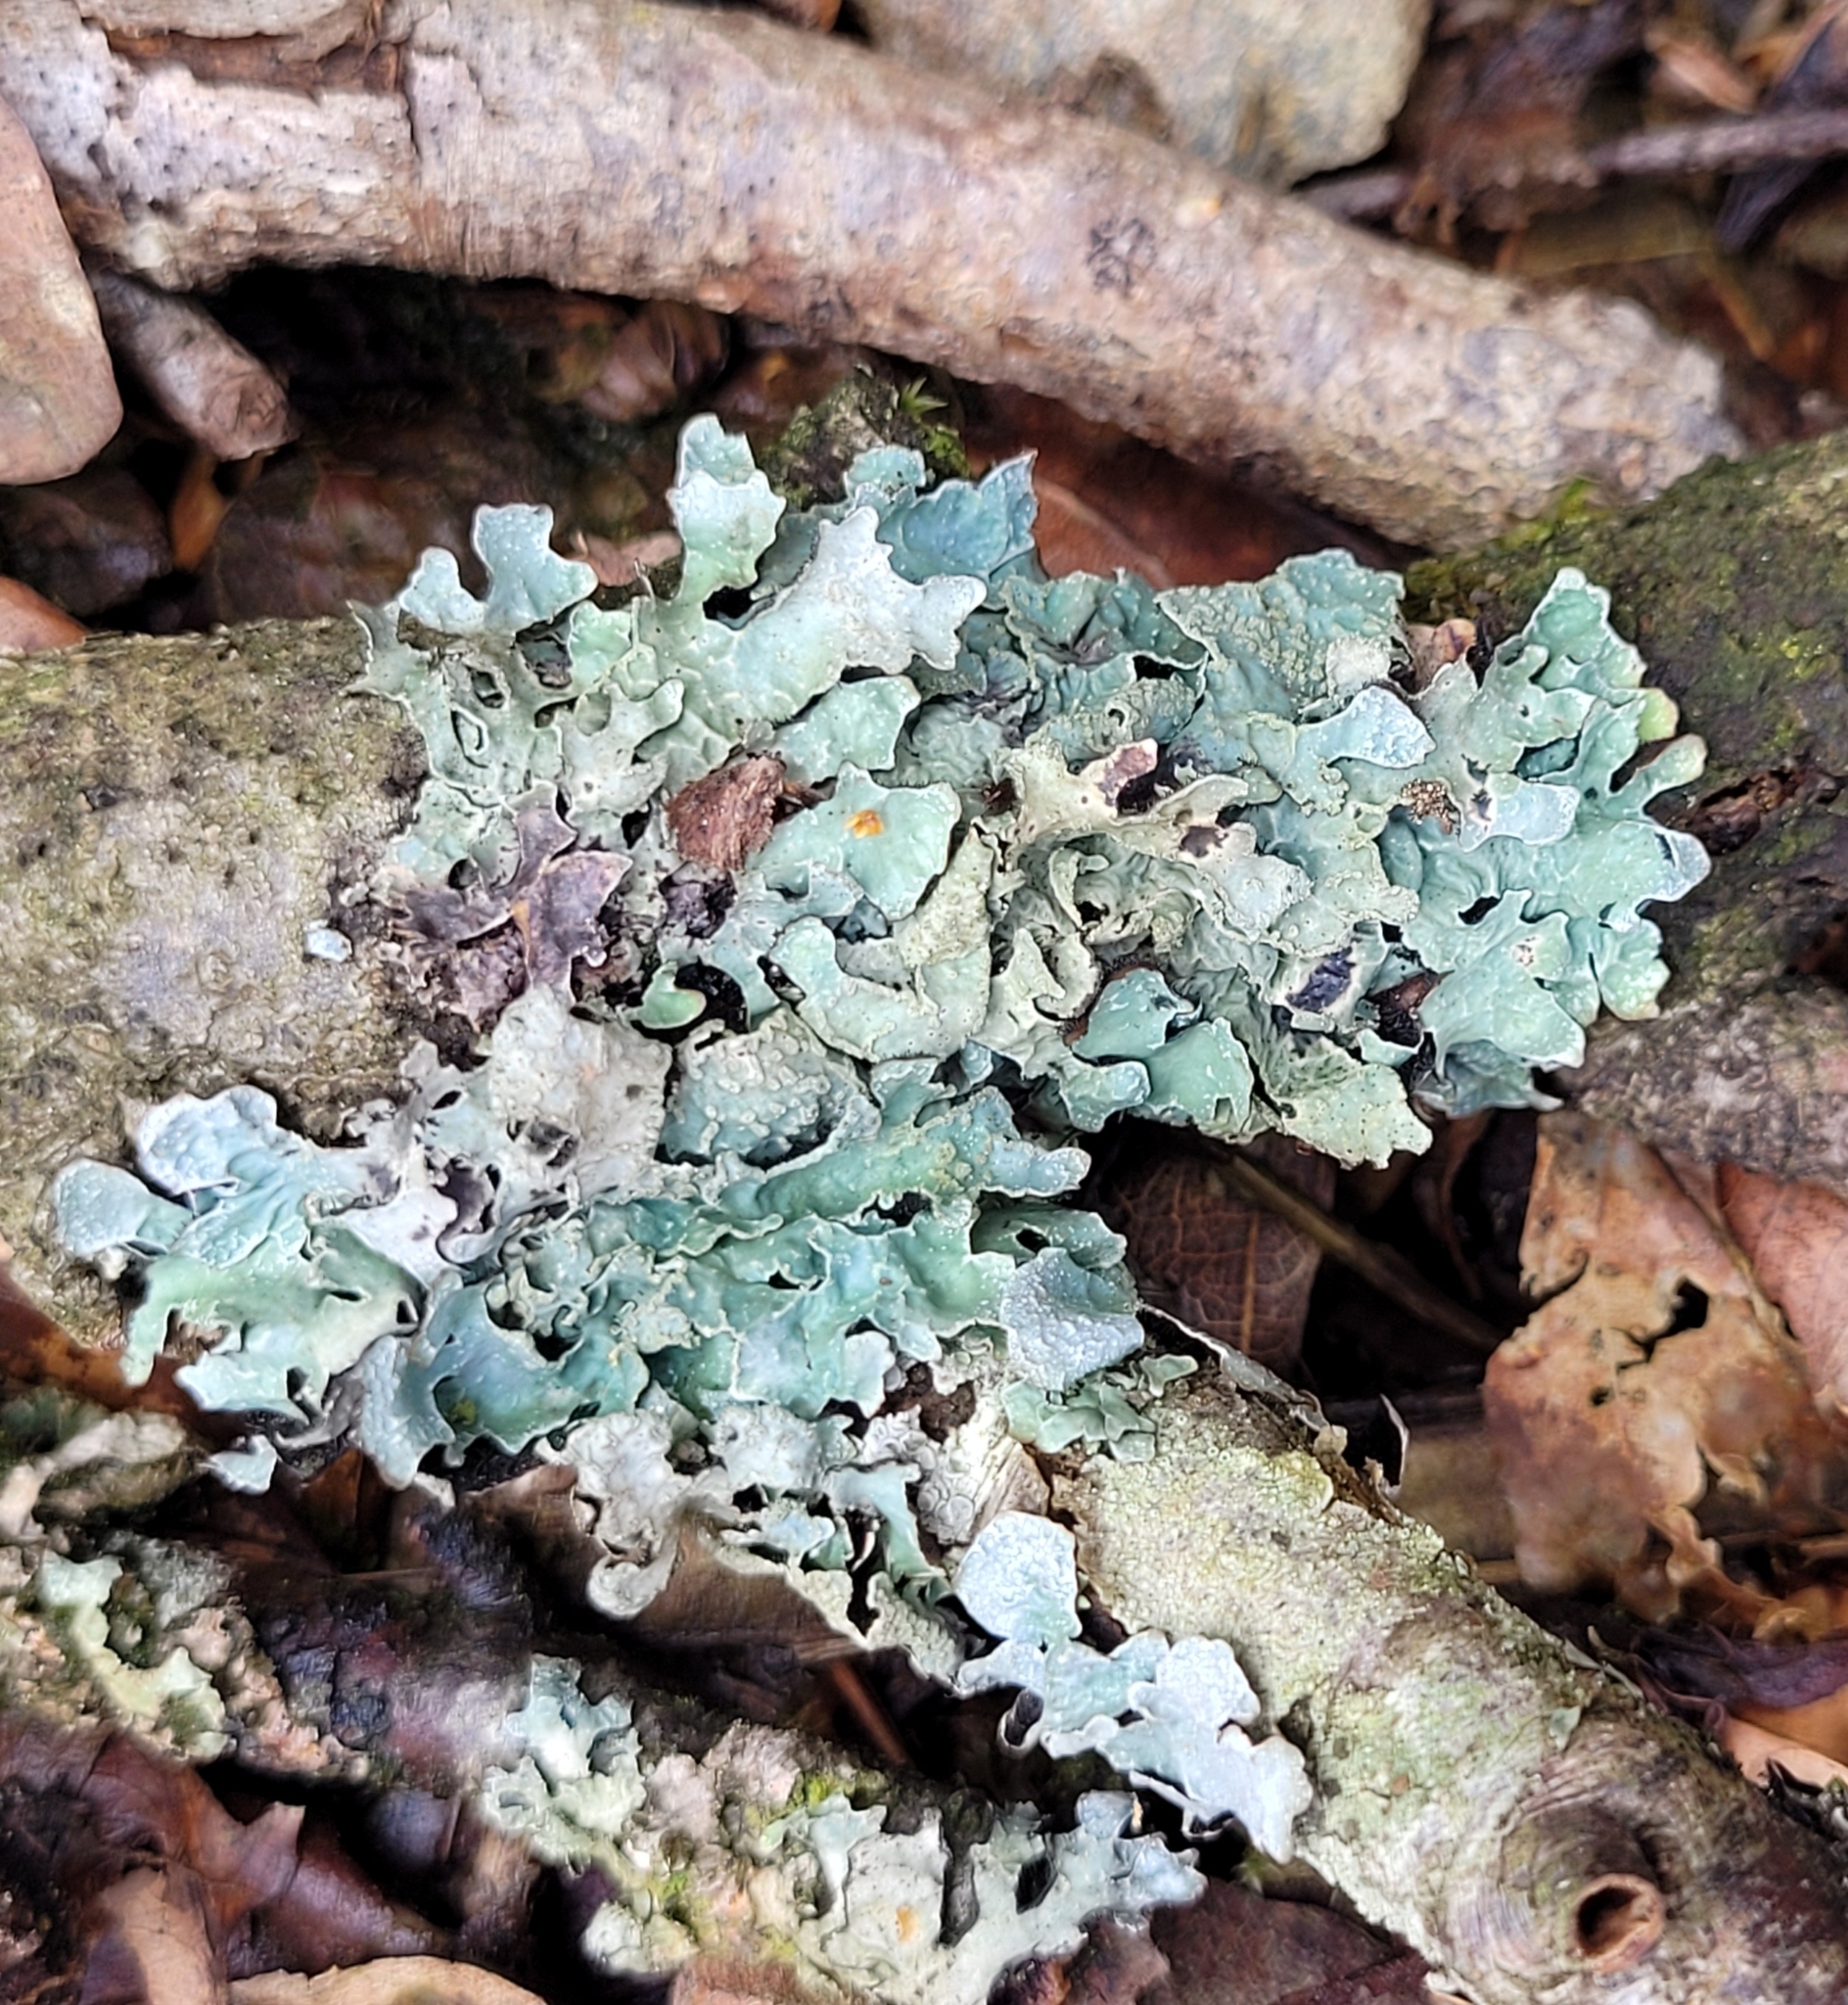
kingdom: Fungi
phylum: Ascomycota
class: Lecanoromycetes
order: Lecanorales
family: Parmeliaceae
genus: Parmelia
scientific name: Parmelia sulcata
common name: Netted shield lichen
